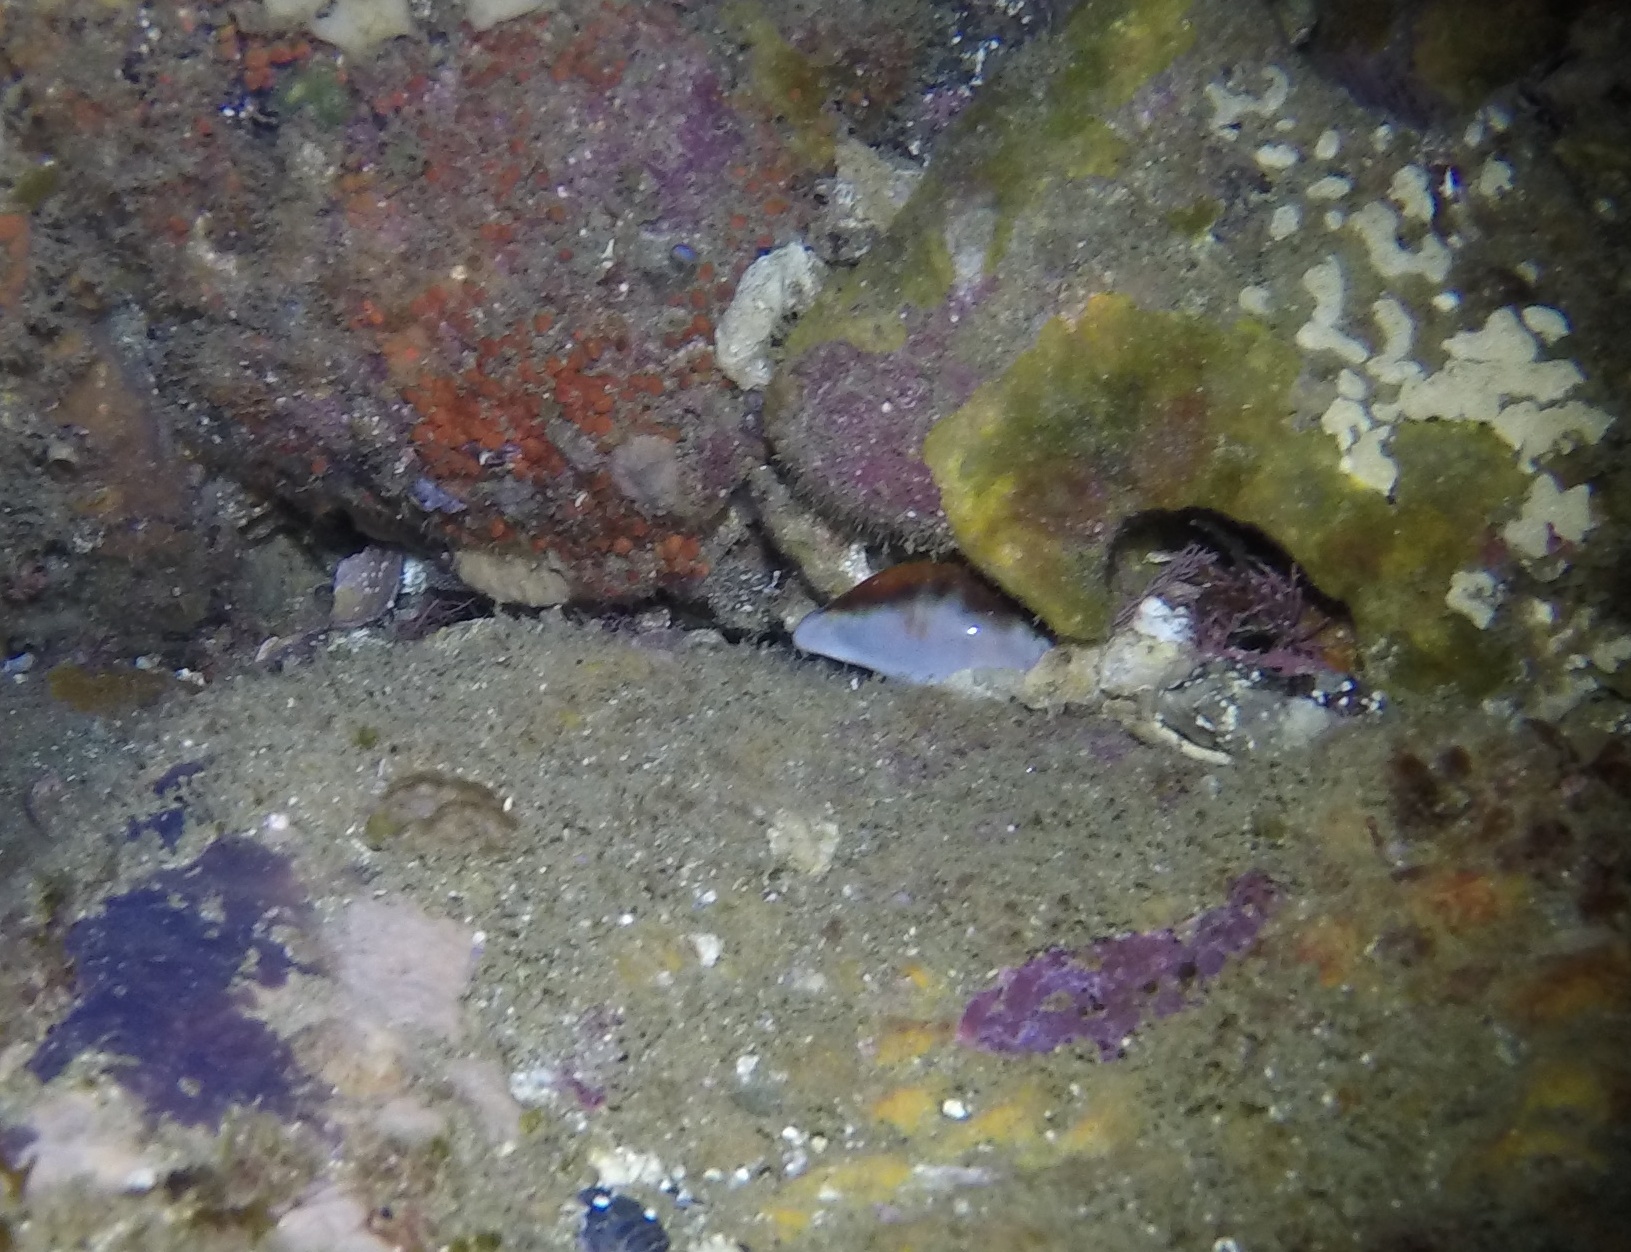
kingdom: Animalia
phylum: Mollusca
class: Gastropoda
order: Littorinimorpha
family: Cypraeidae
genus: Neobernaya
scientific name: Neobernaya spadicea
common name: Chestnut cowrie
